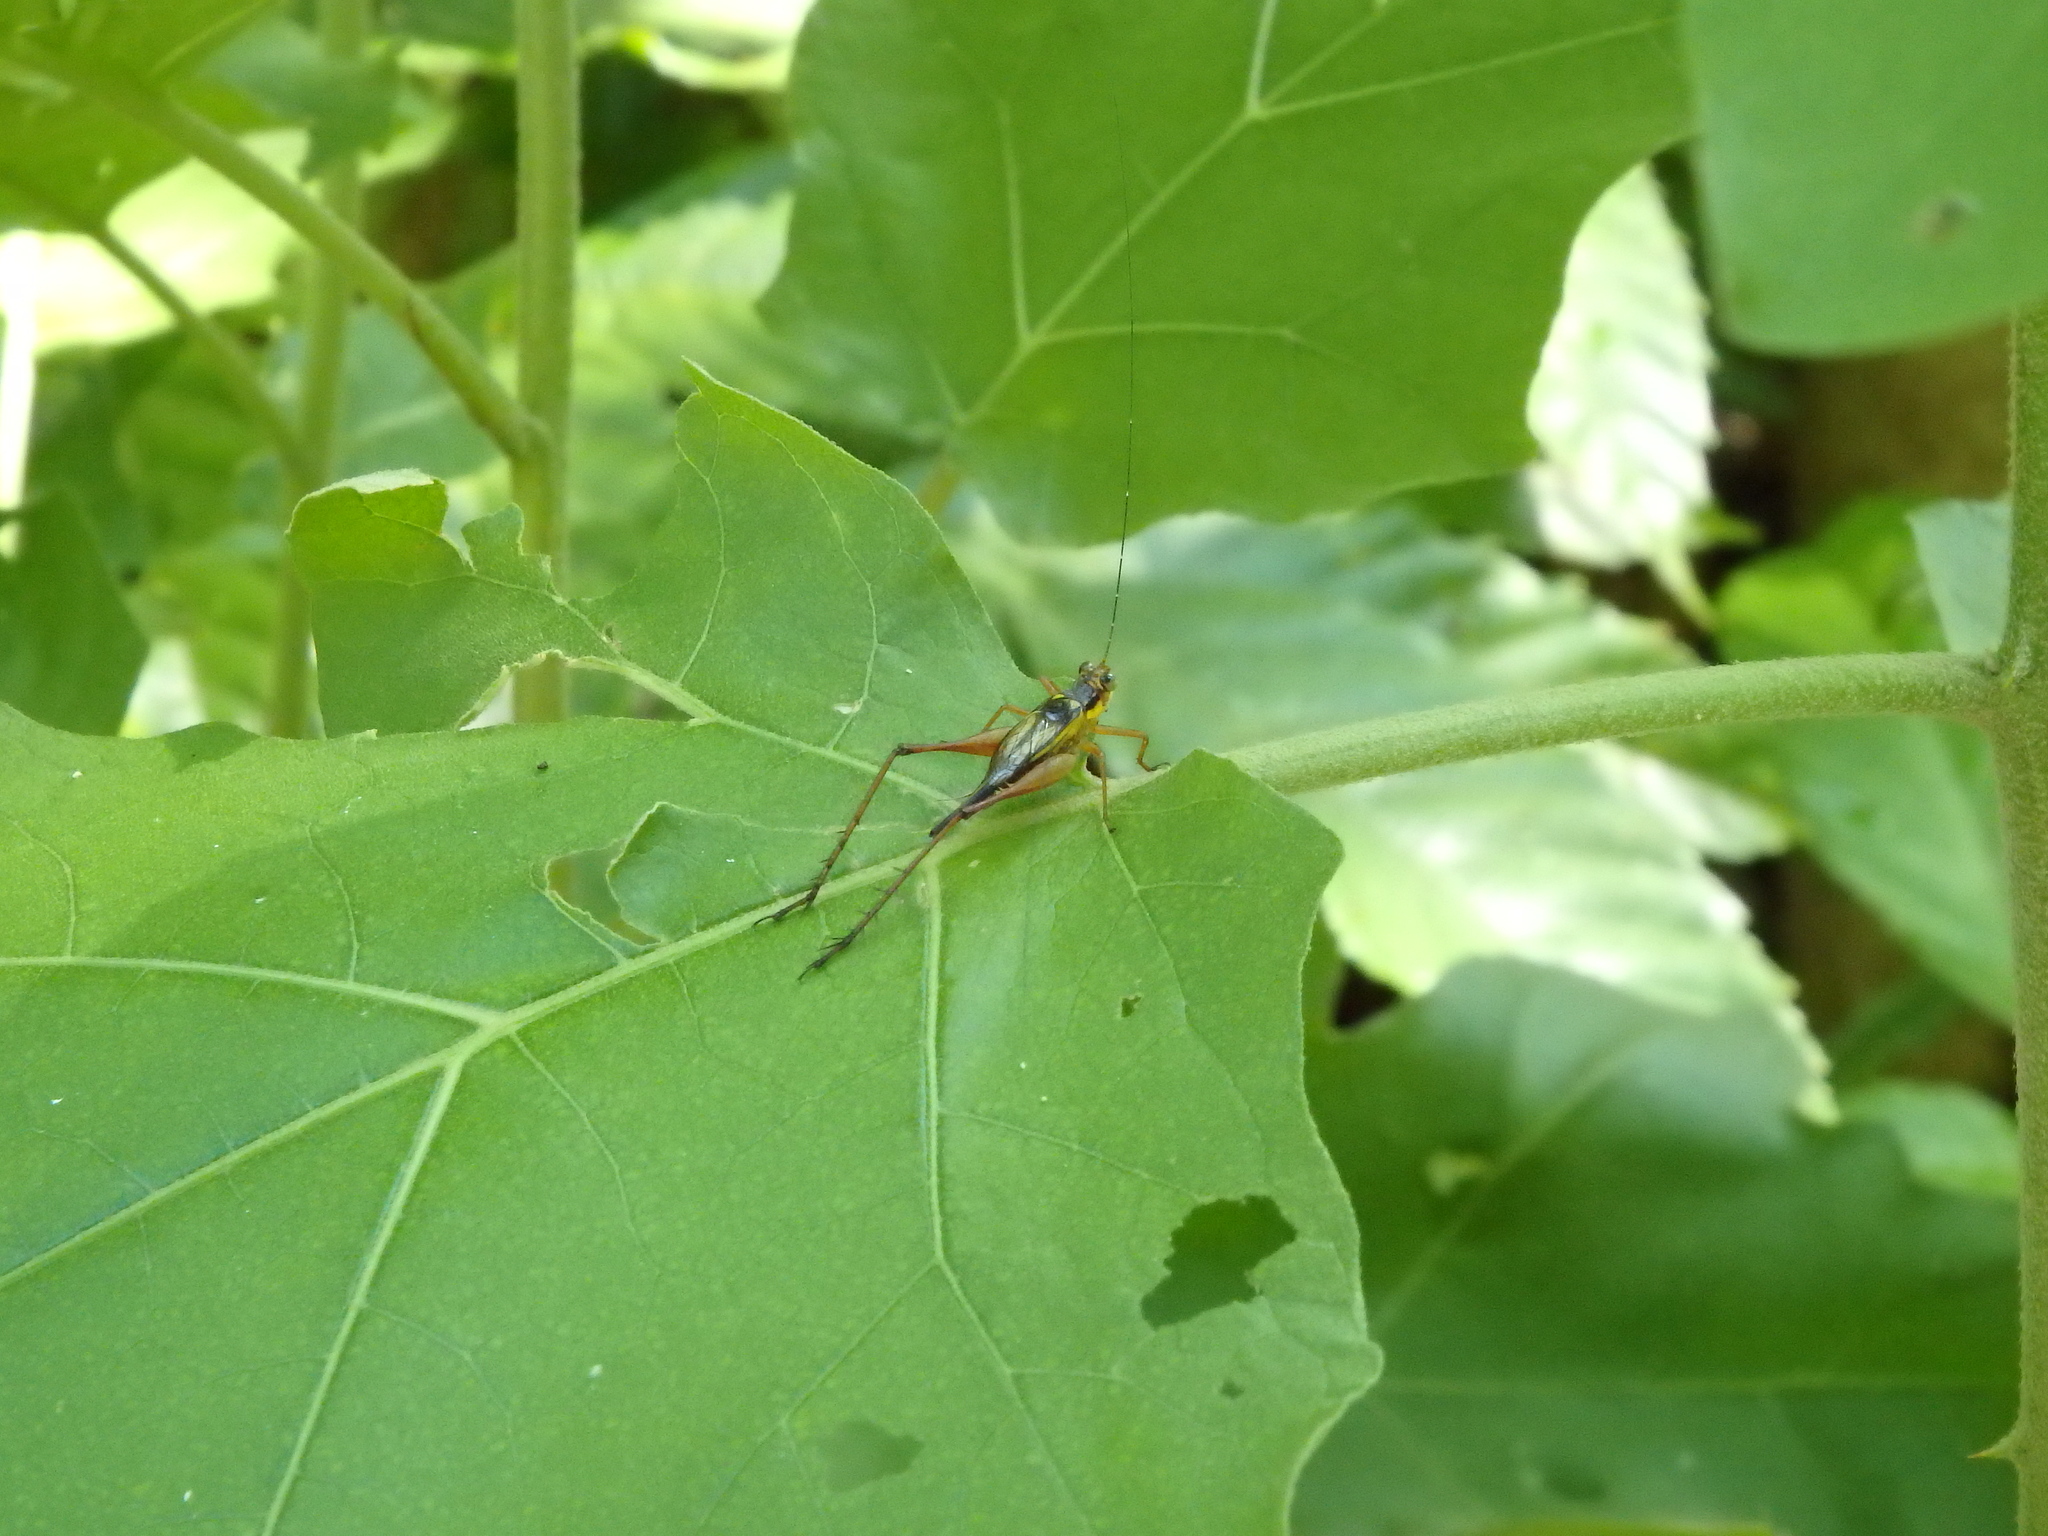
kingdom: Animalia
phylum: Arthropoda
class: Insecta
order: Orthoptera
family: Gryllidae
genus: Nisitrus
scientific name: Nisitrus malaya
